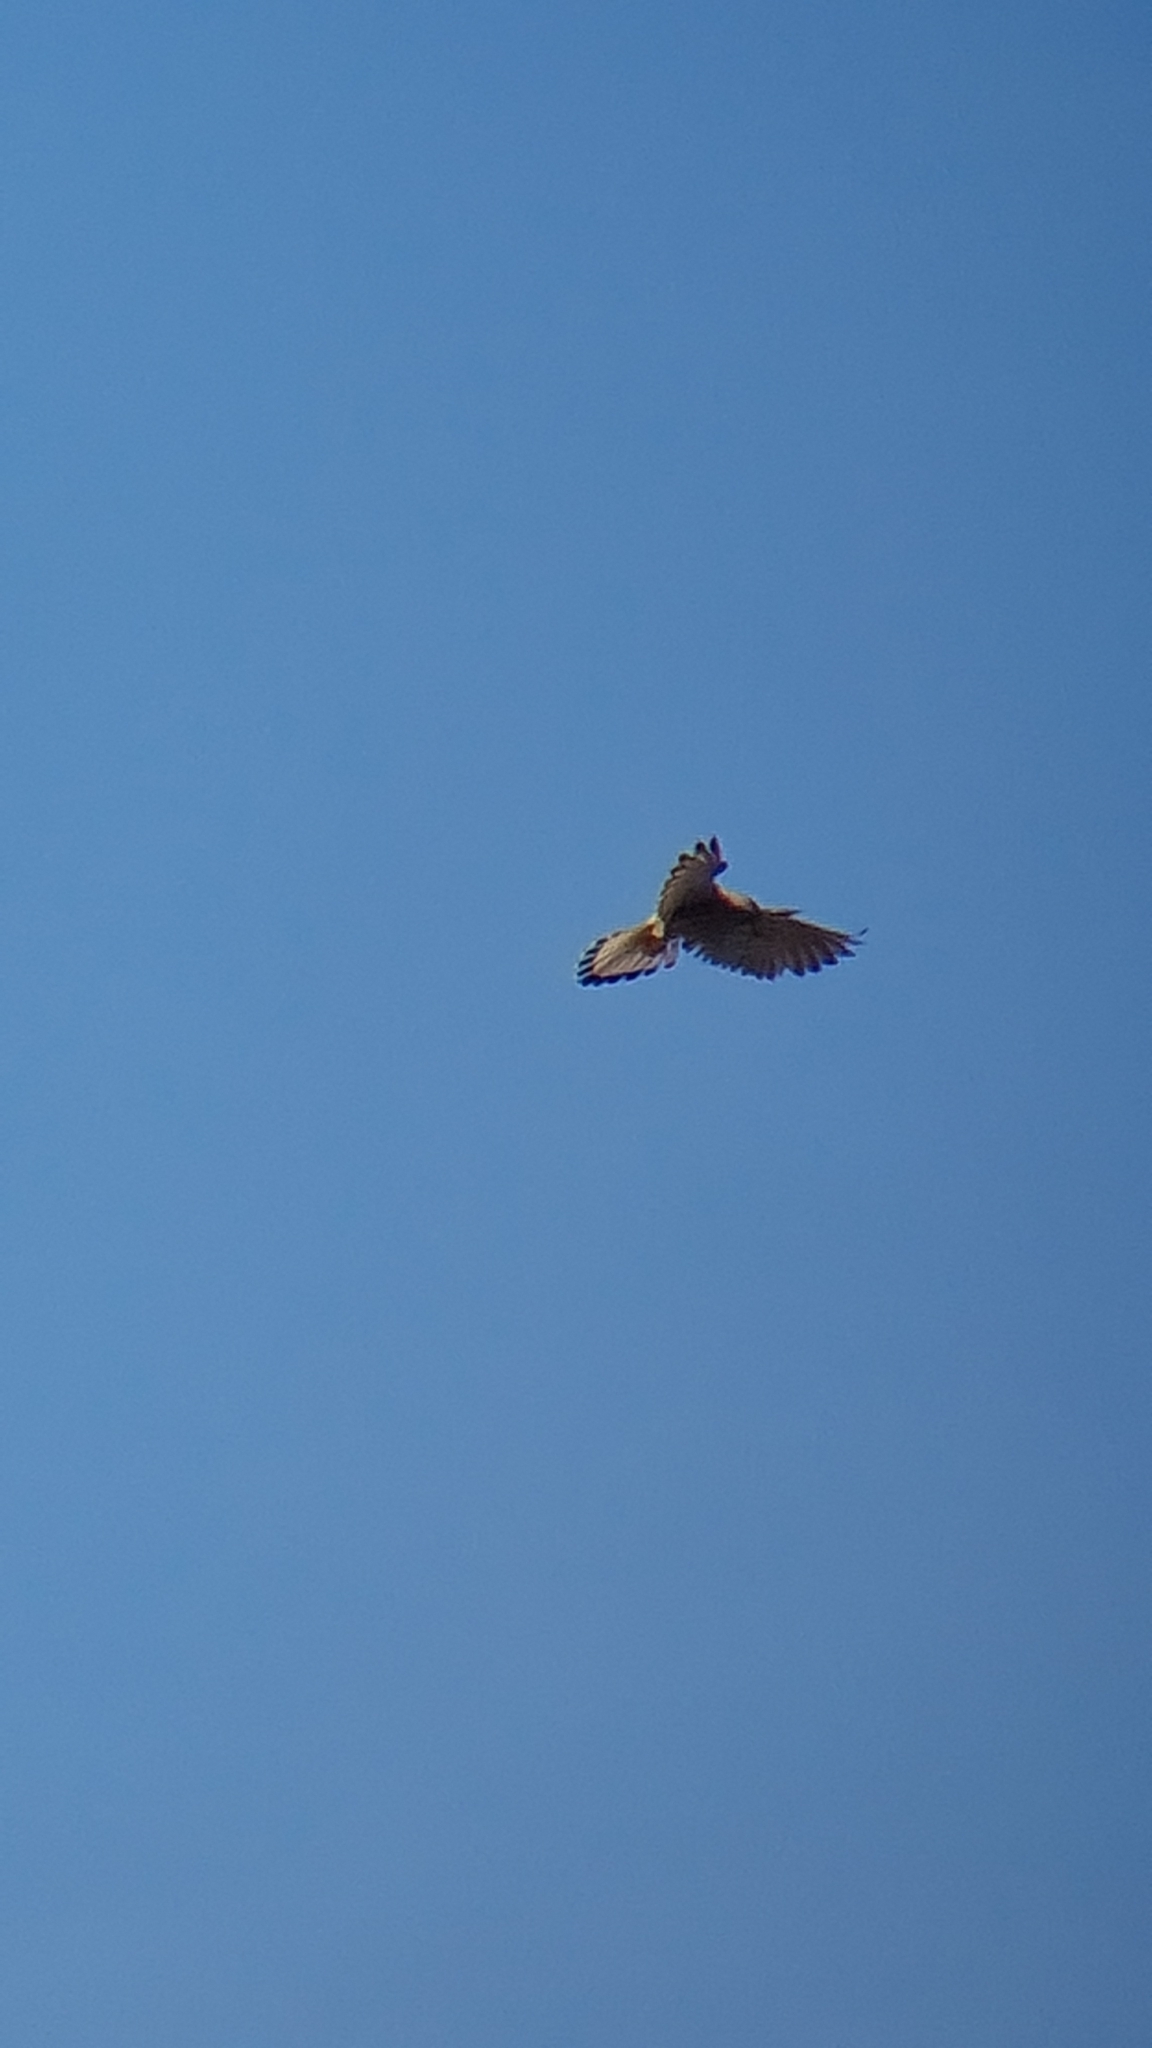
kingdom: Animalia
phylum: Chordata
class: Aves
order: Falconiformes
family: Falconidae
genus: Falco
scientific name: Falco tinnunculus
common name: Common kestrel
